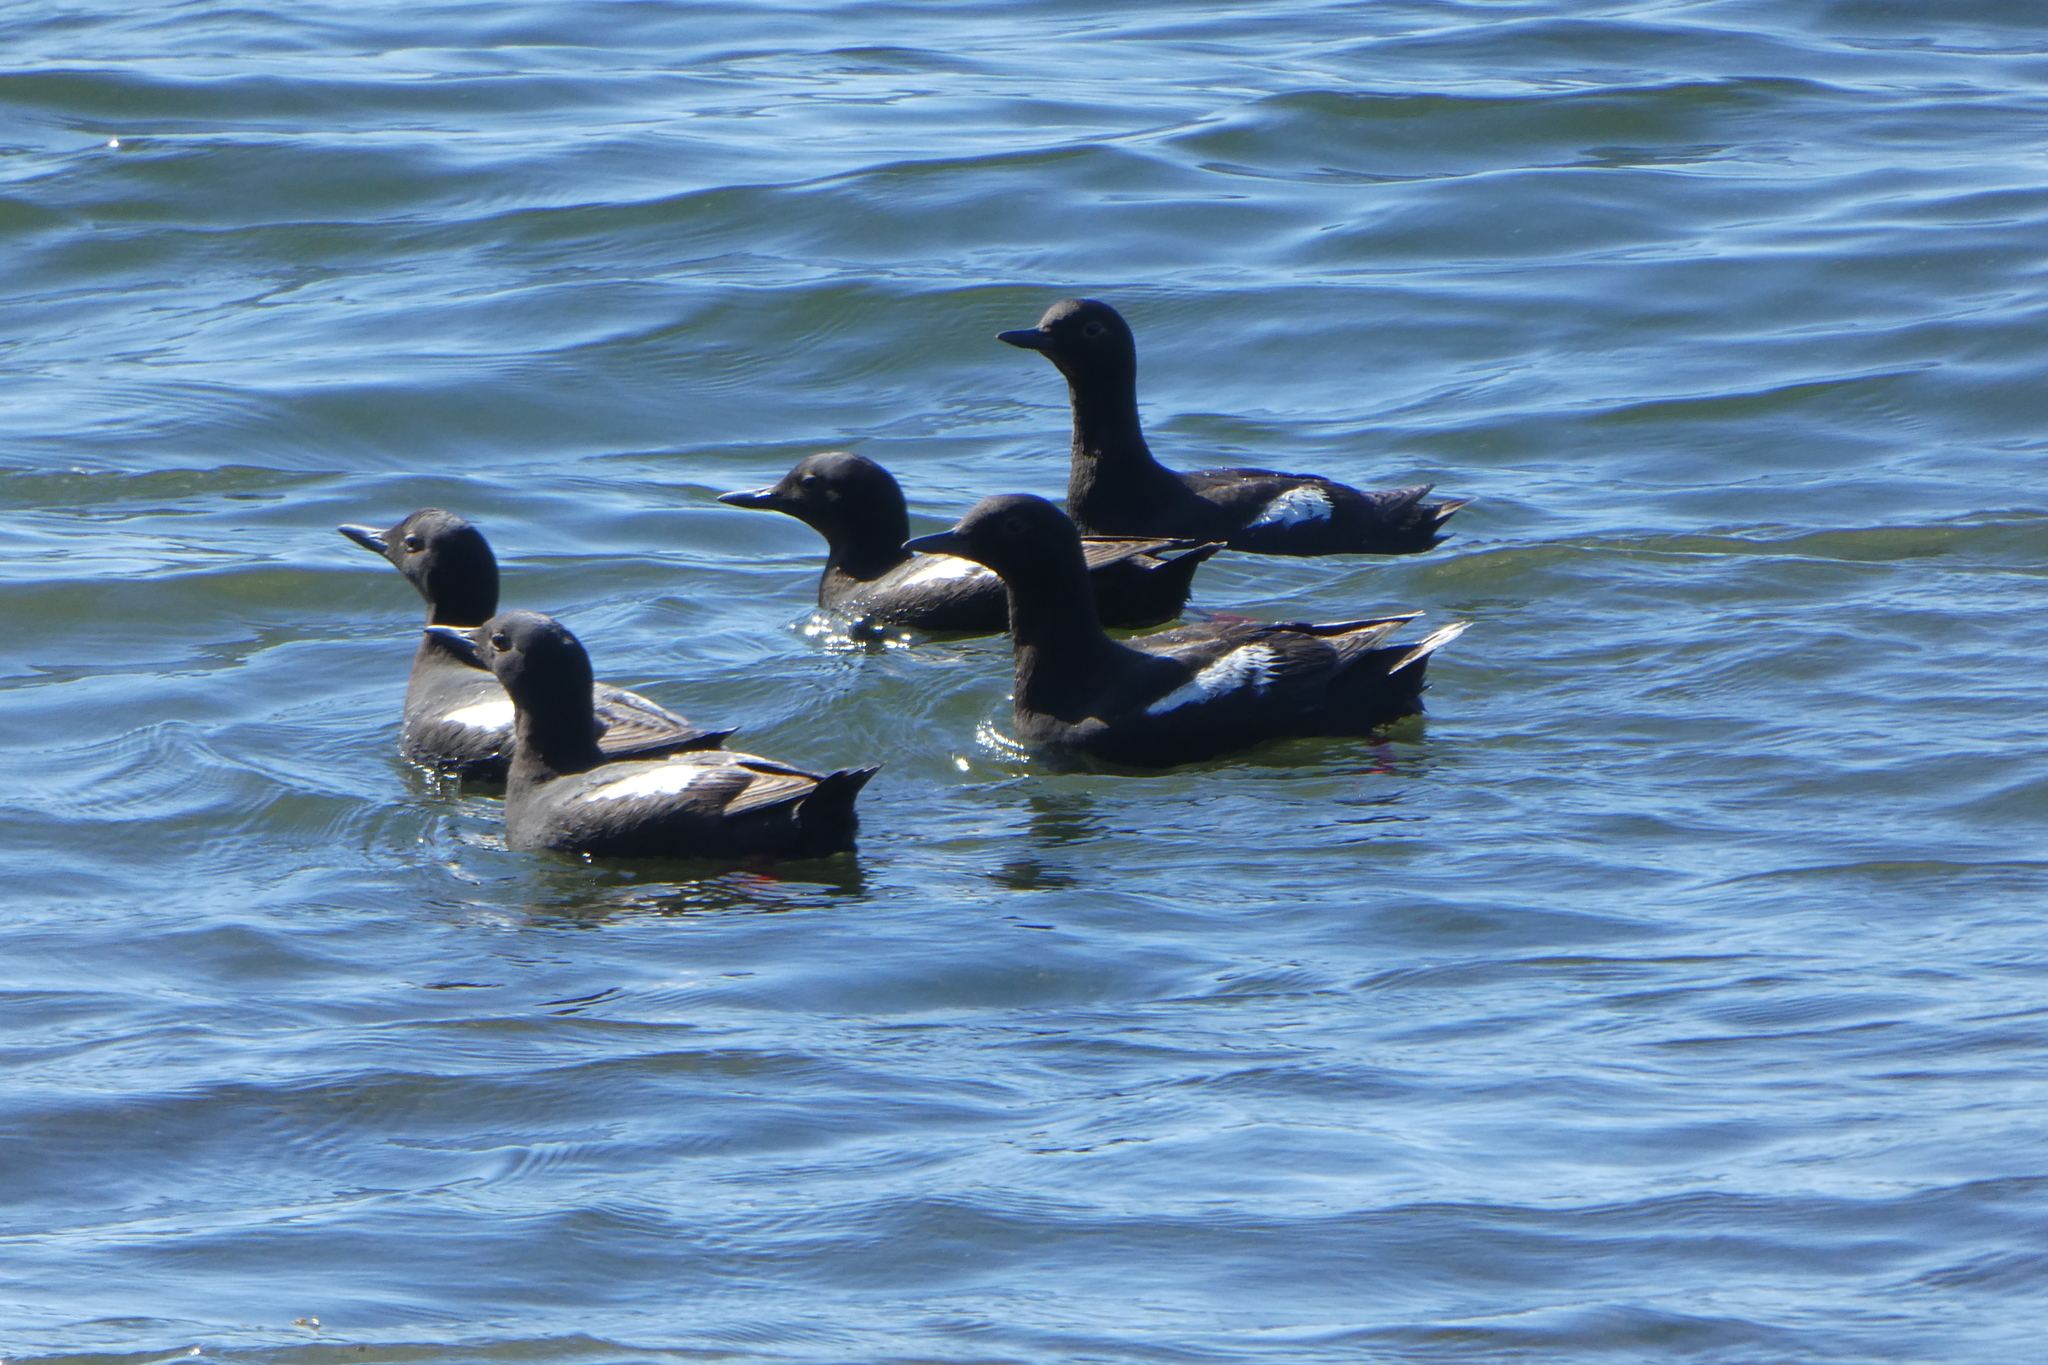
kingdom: Animalia
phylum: Chordata
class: Aves
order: Charadriiformes
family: Alcidae
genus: Cepphus
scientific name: Cepphus columba
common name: Pigeon guillemot
